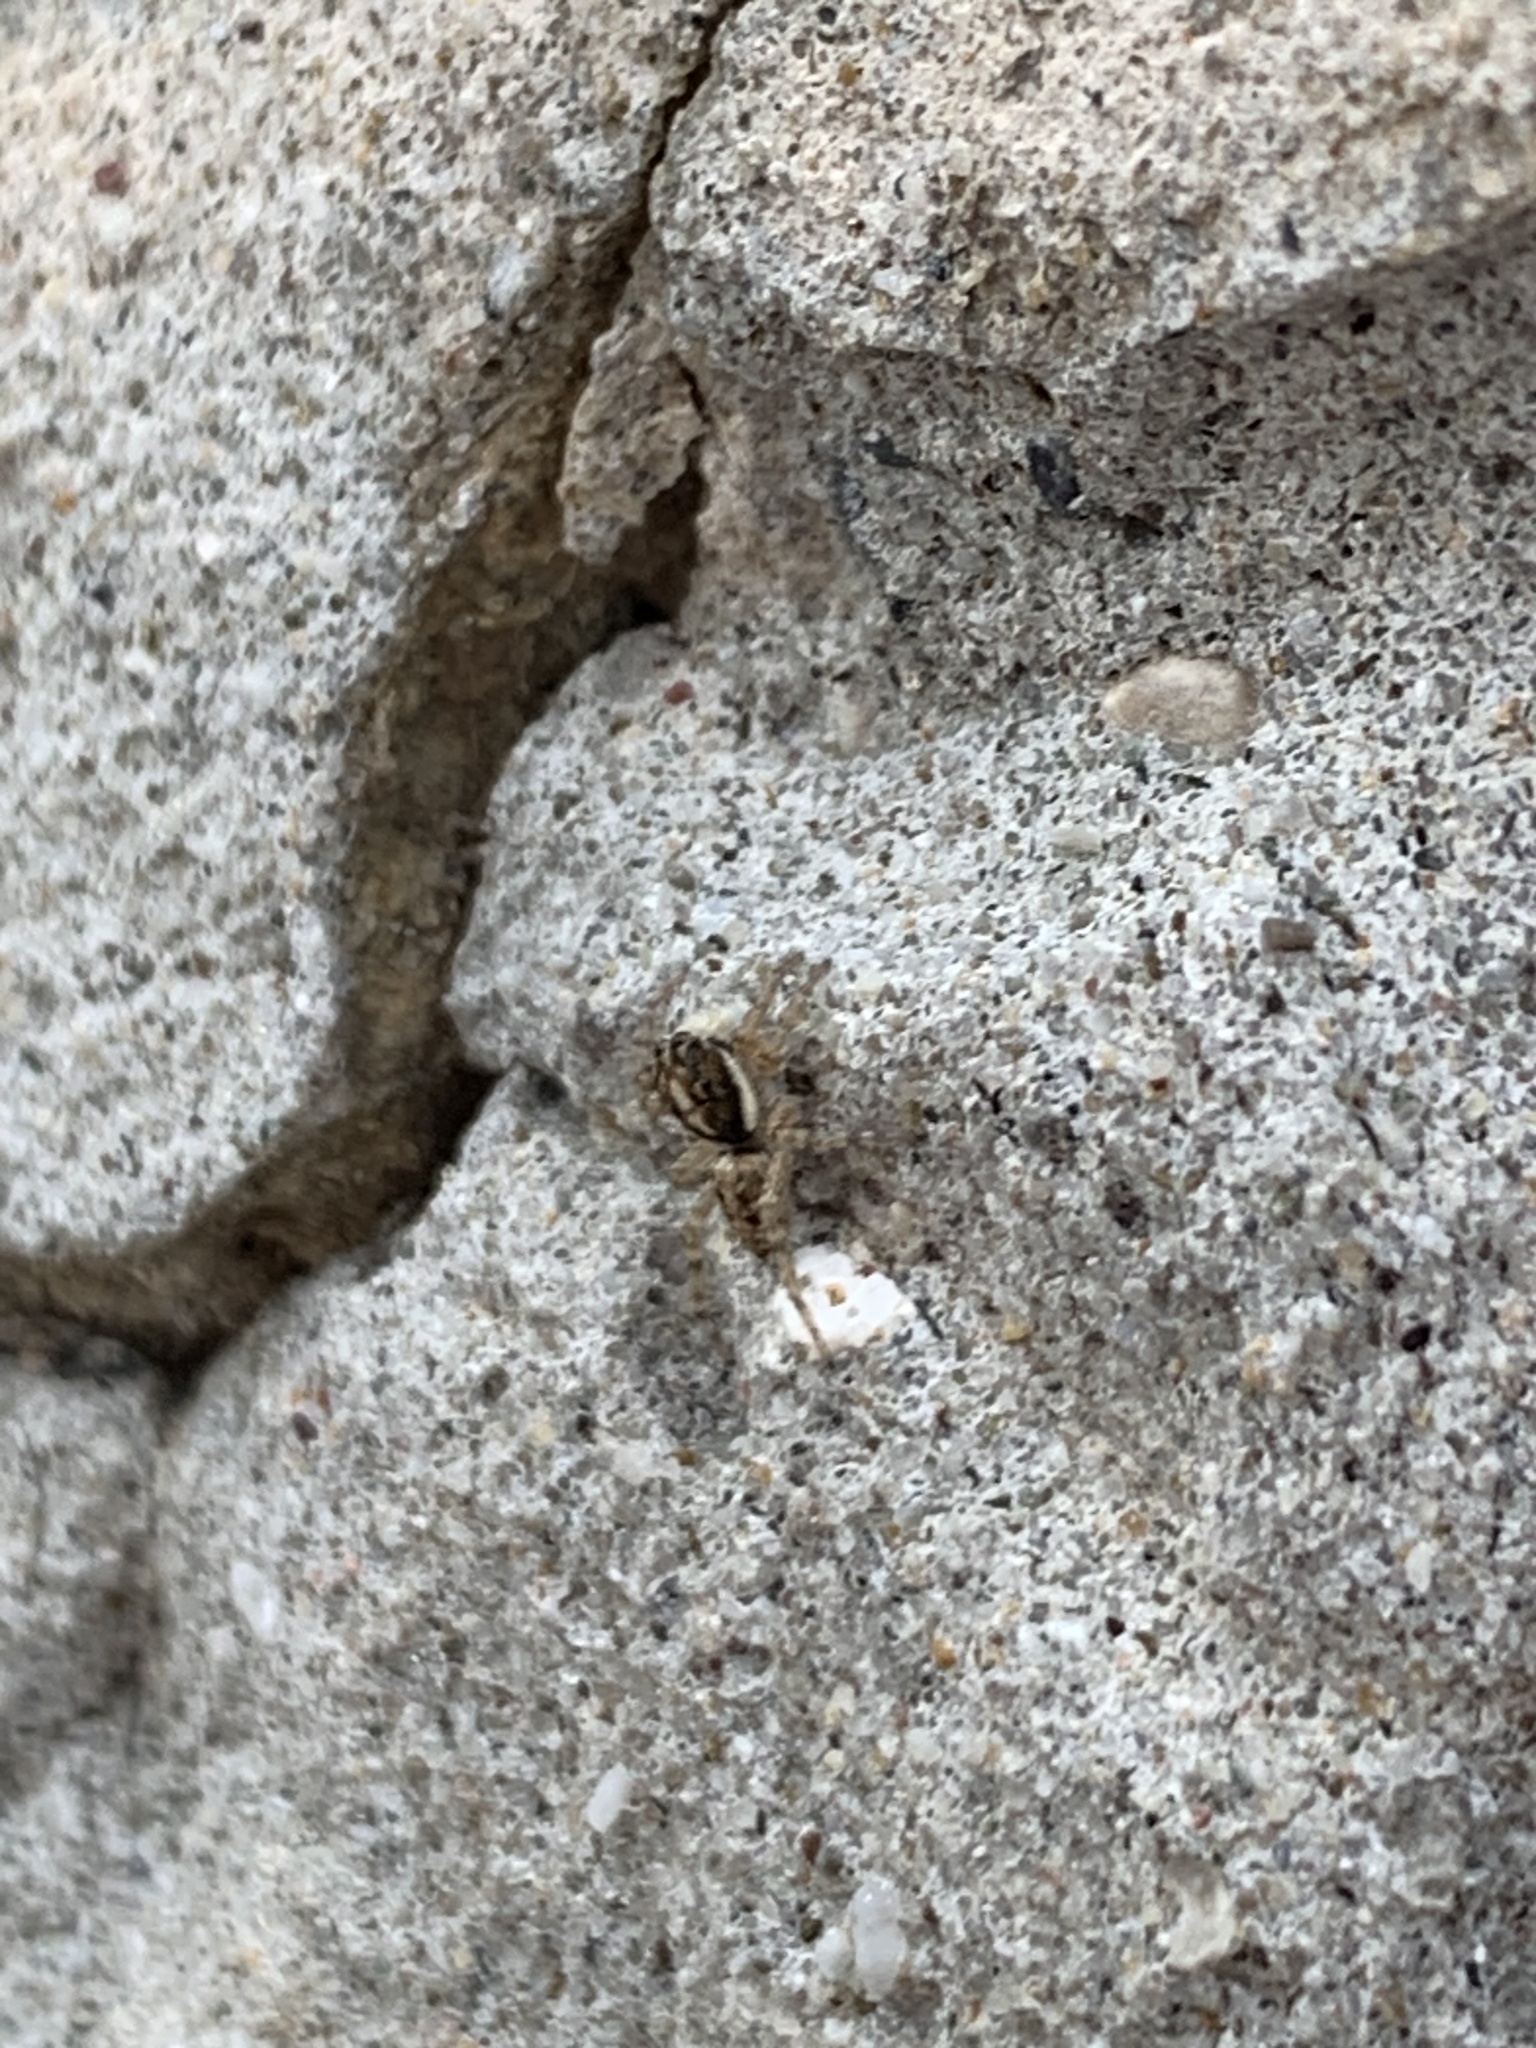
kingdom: Animalia
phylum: Arthropoda
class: Arachnida
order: Araneae
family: Salticidae
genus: Menemerus
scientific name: Menemerus semilimbatus
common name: Jumping spider
